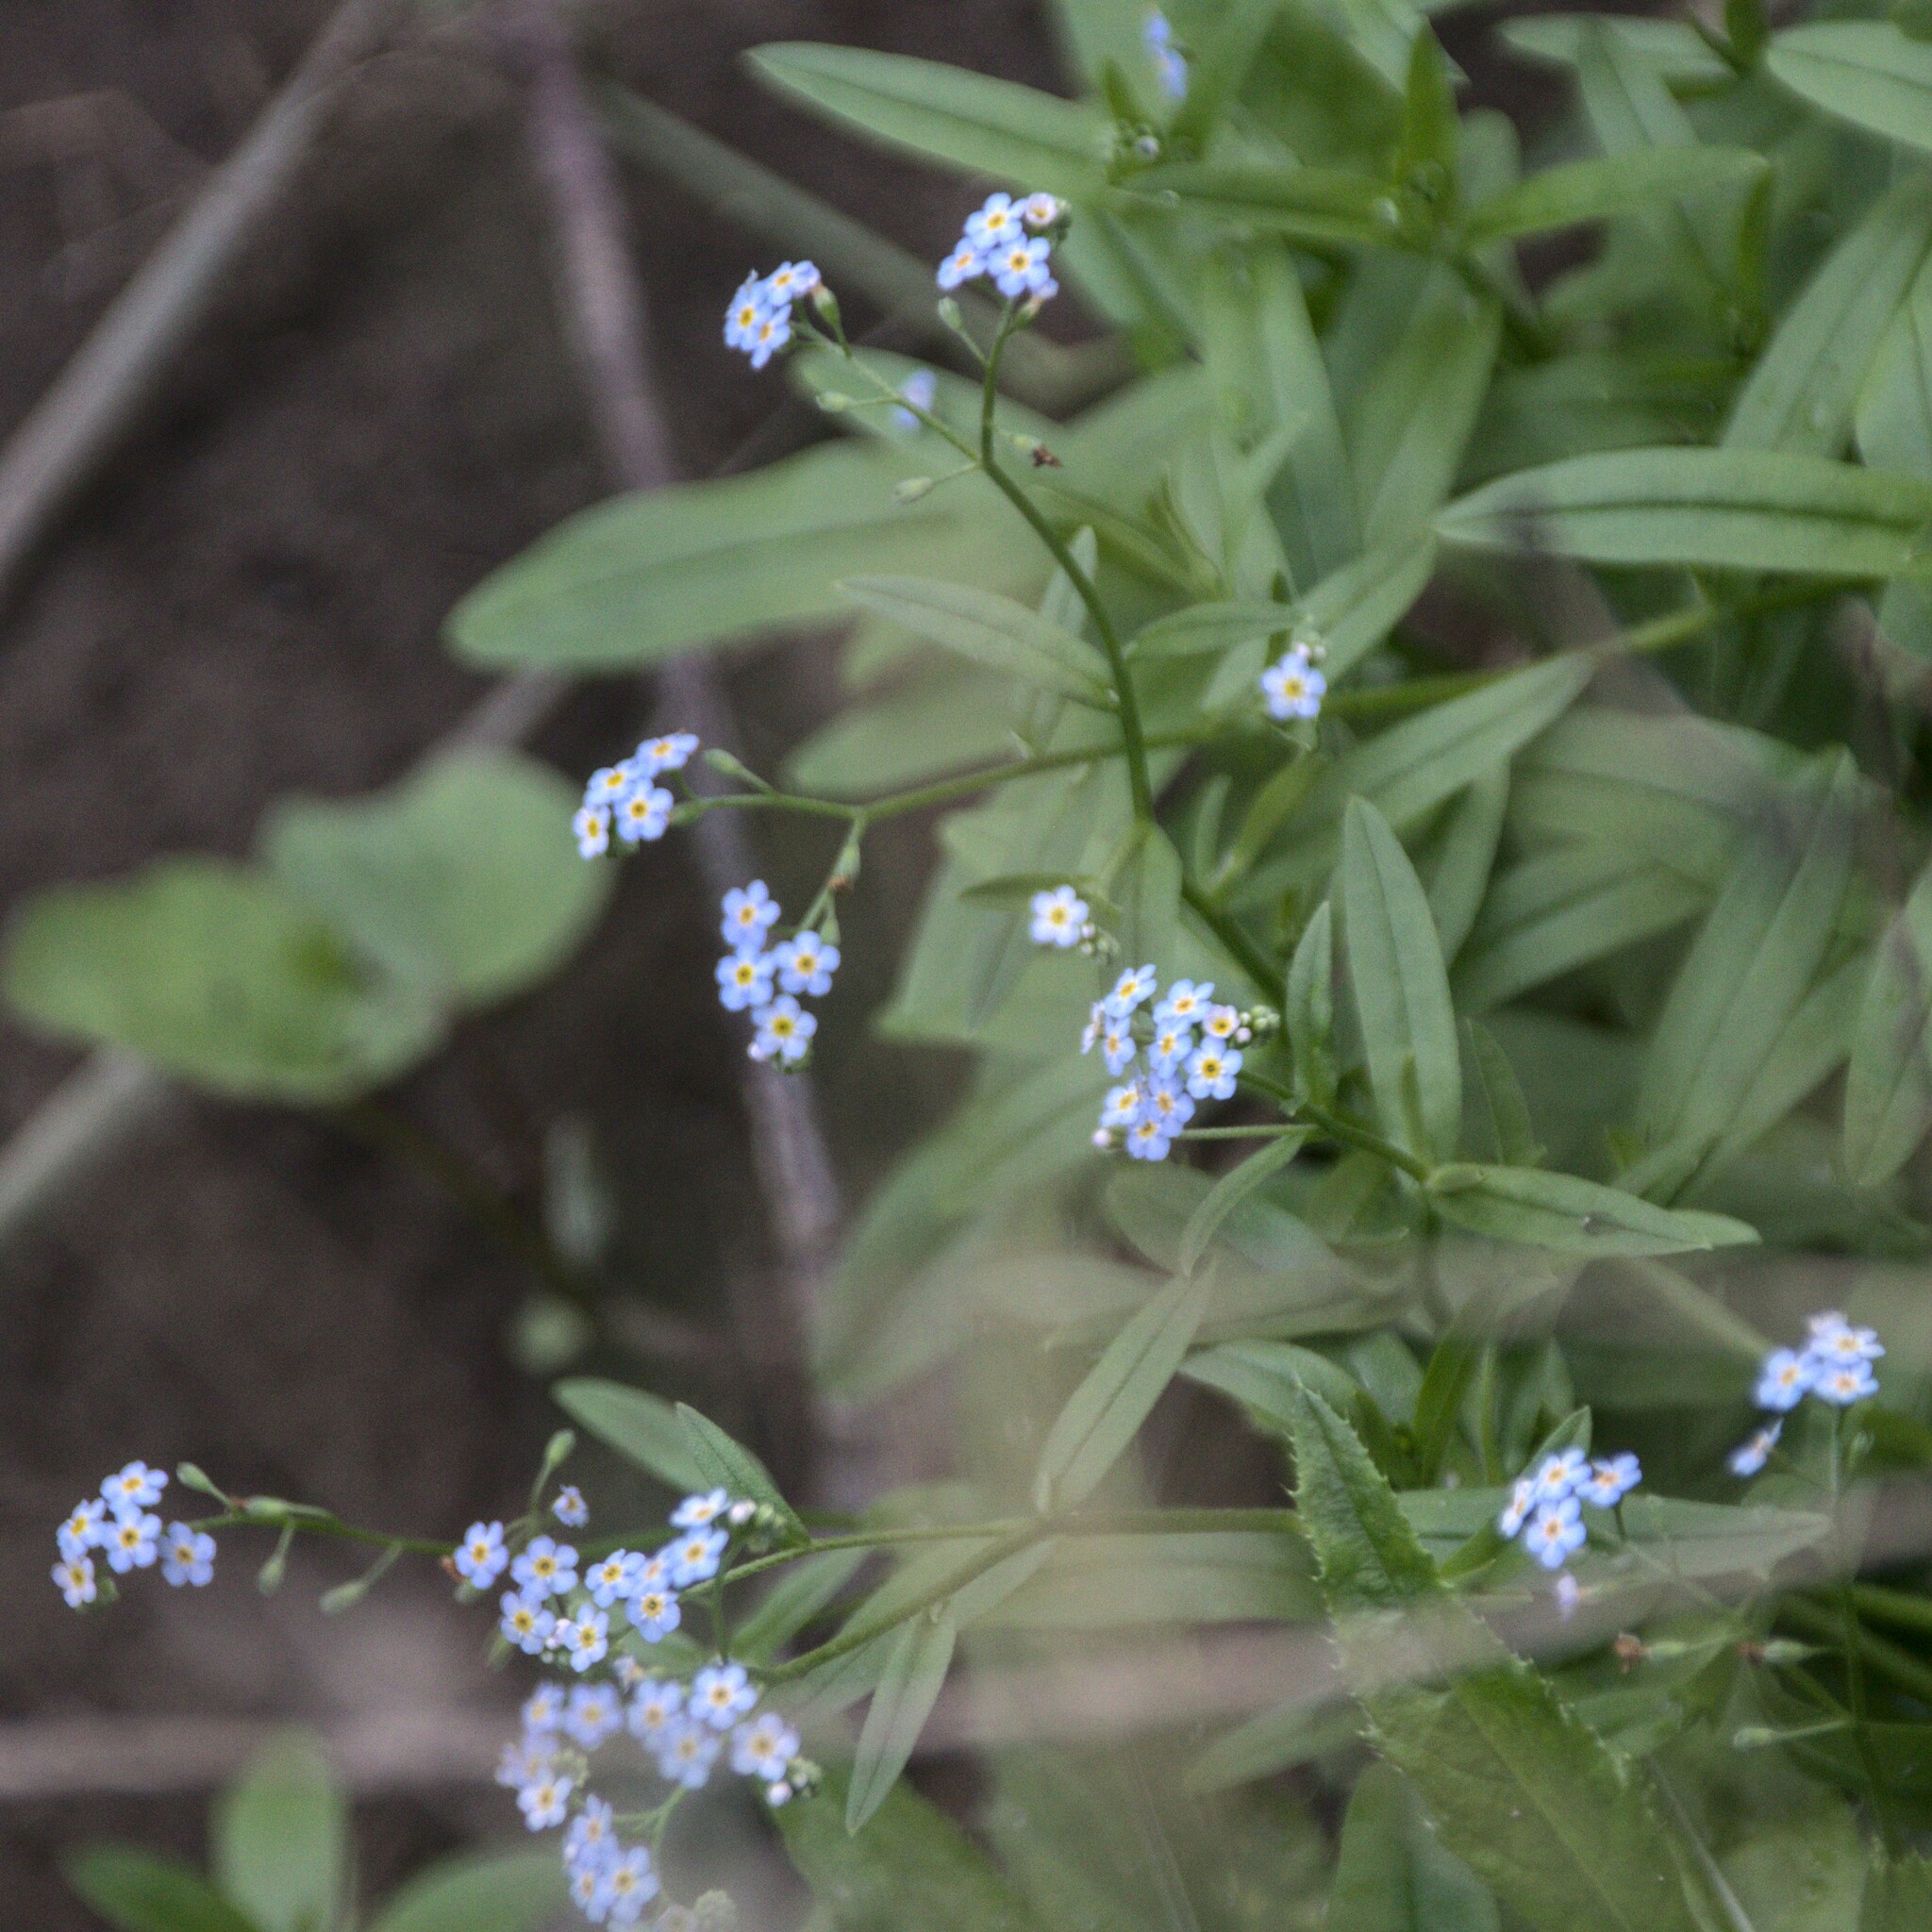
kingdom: Plantae
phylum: Tracheophyta
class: Magnoliopsida
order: Boraginales
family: Boraginaceae
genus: Myosotis
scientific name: Myosotis scorpioides
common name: Water forget-me-not
